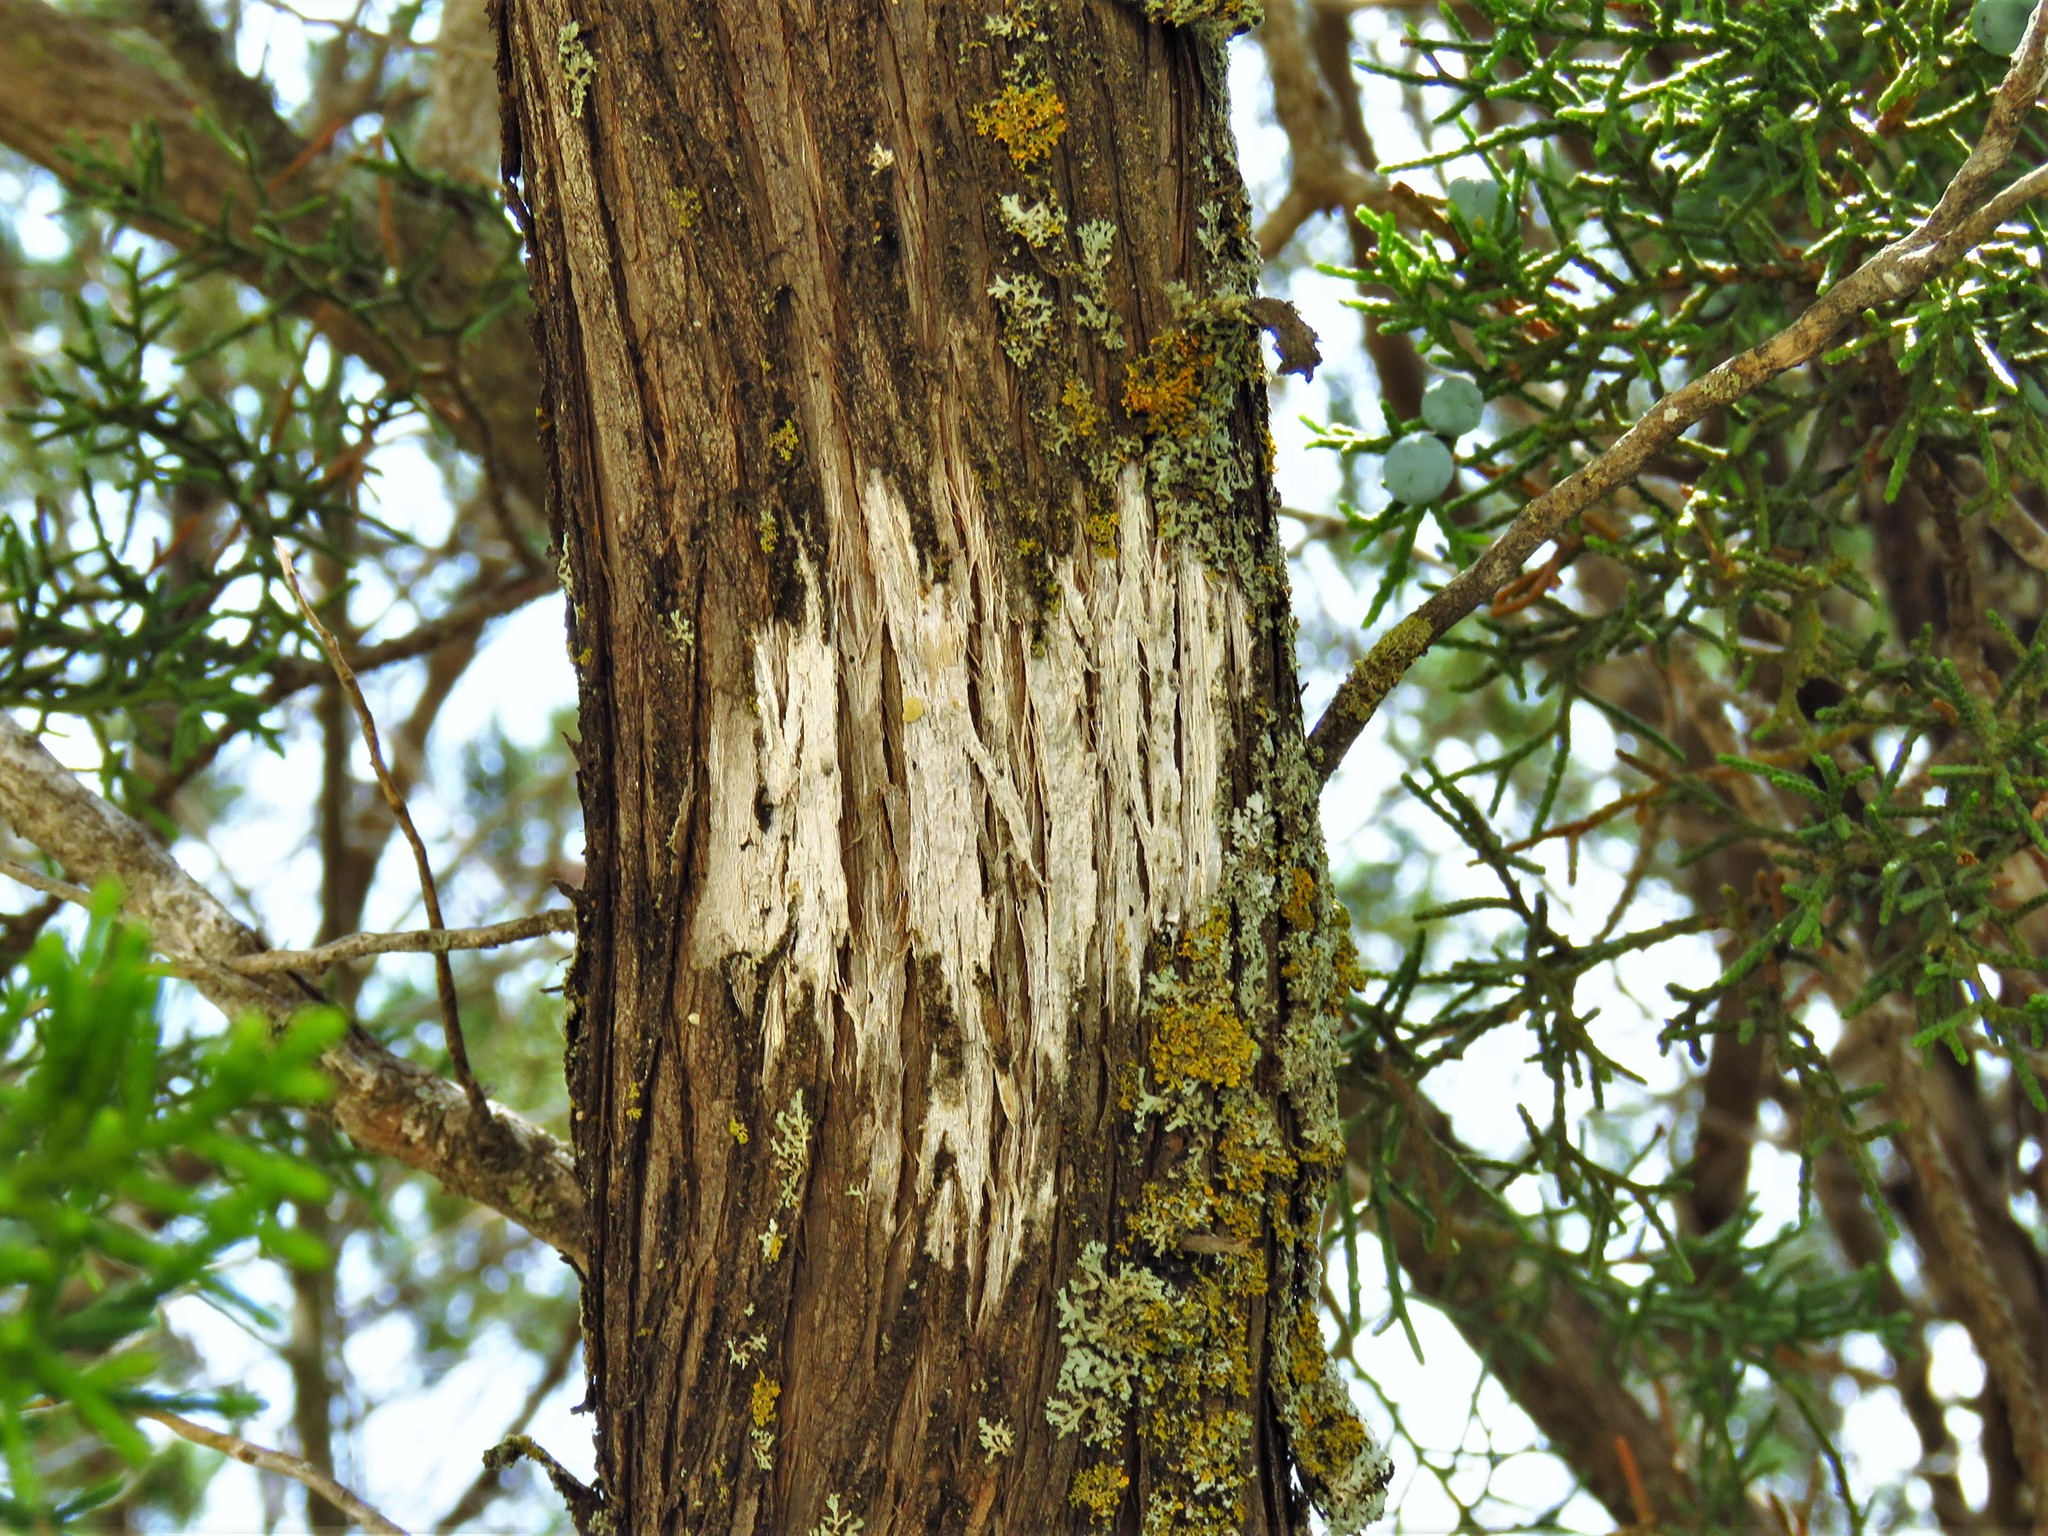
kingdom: Fungi
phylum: Ascomycota
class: Lecanoromycetes
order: Ostropales
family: Stictidaceae
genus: Robergea
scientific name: Robergea
